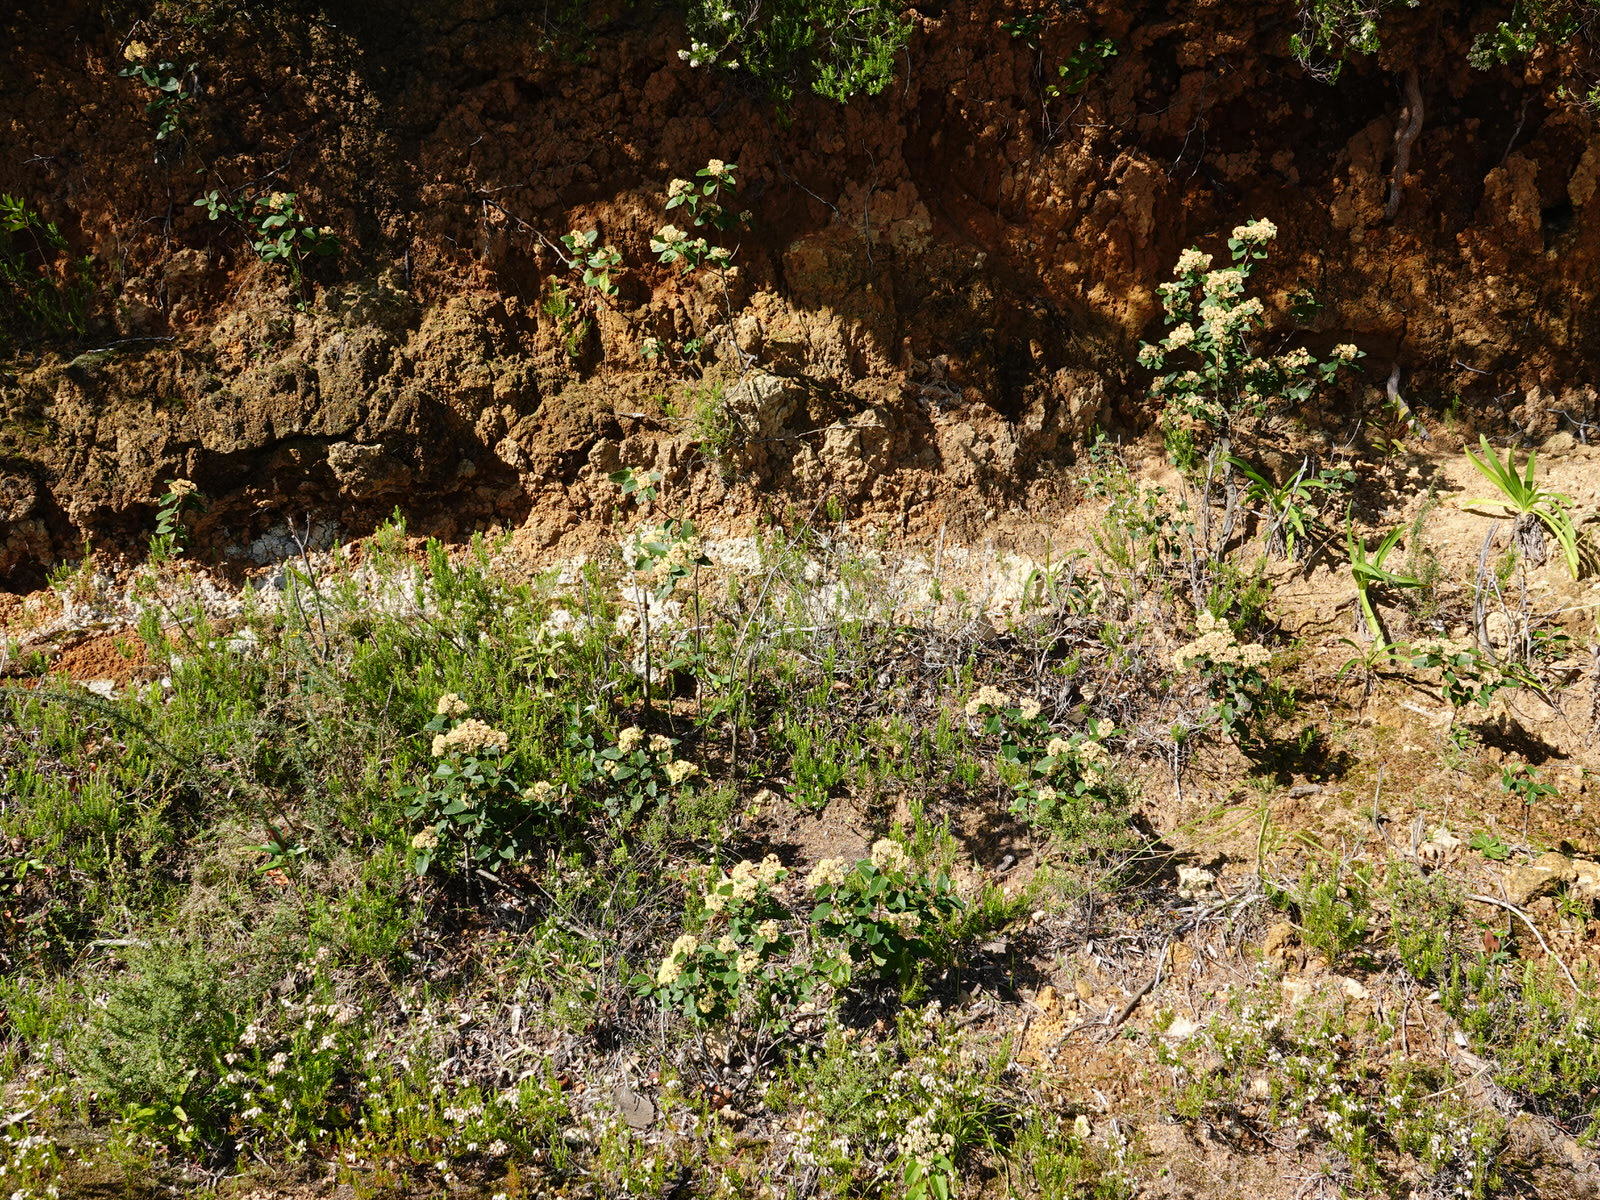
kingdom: Plantae
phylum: Tracheophyta
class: Magnoliopsida
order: Rosales
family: Rhamnaceae
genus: Pomaderris
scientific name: Pomaderris kumeraho
